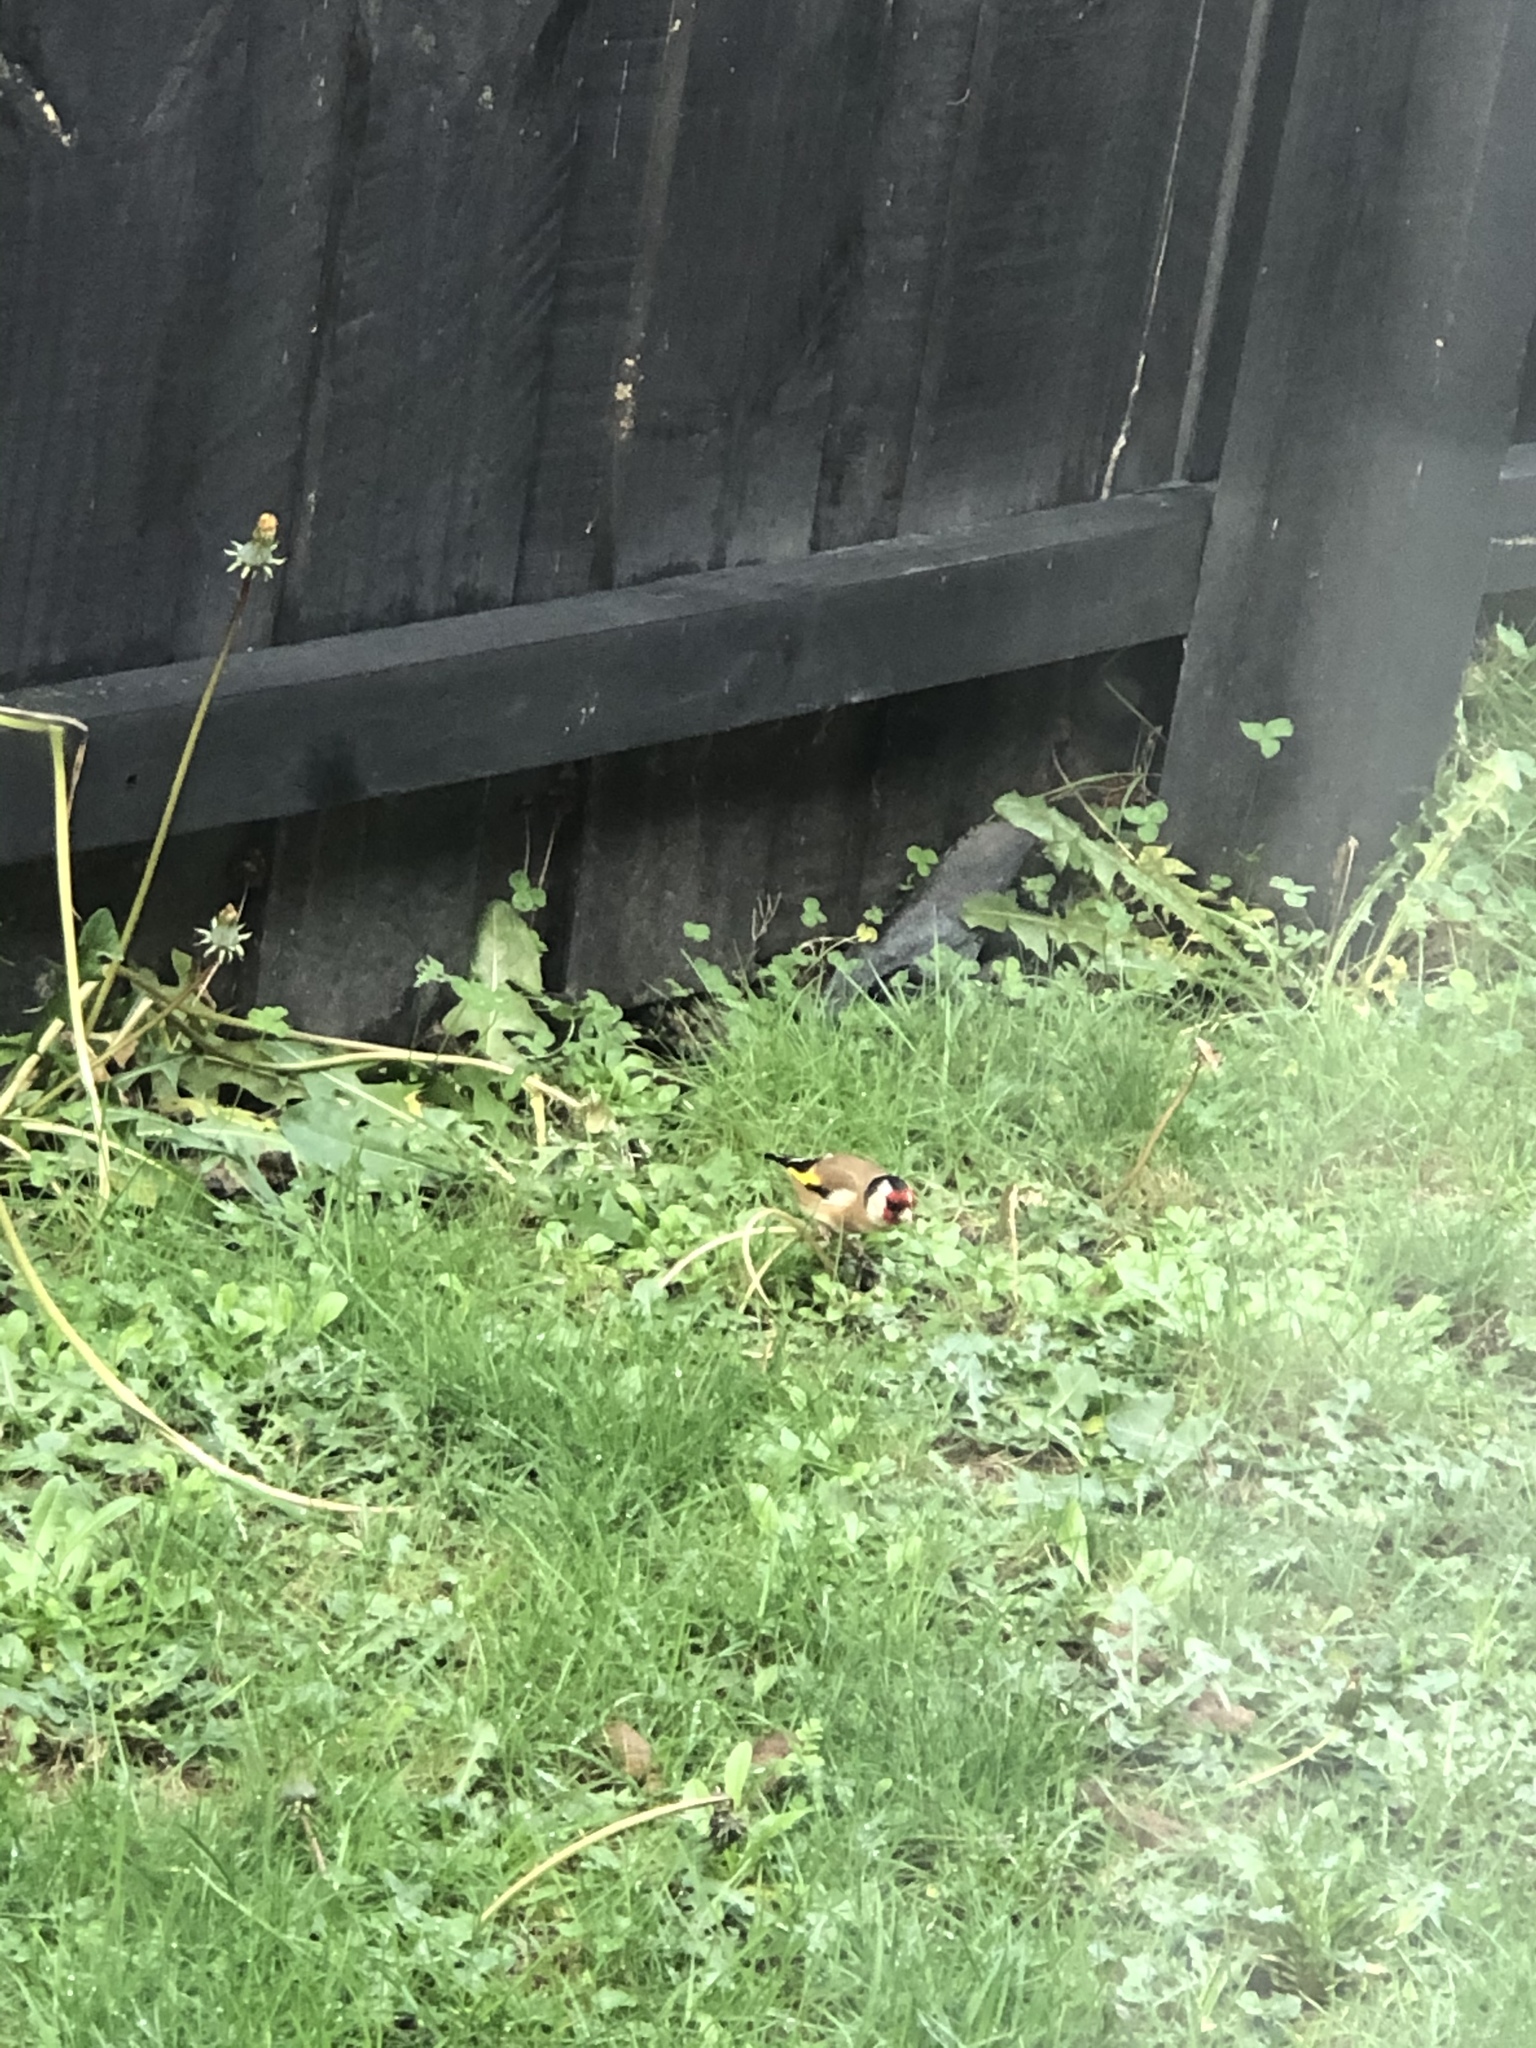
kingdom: Animalia
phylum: Chordata
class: Aves
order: Passeriformes
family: Fringillidae
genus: Carduelis
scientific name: Carduelis carduelis
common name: European goldfinch
